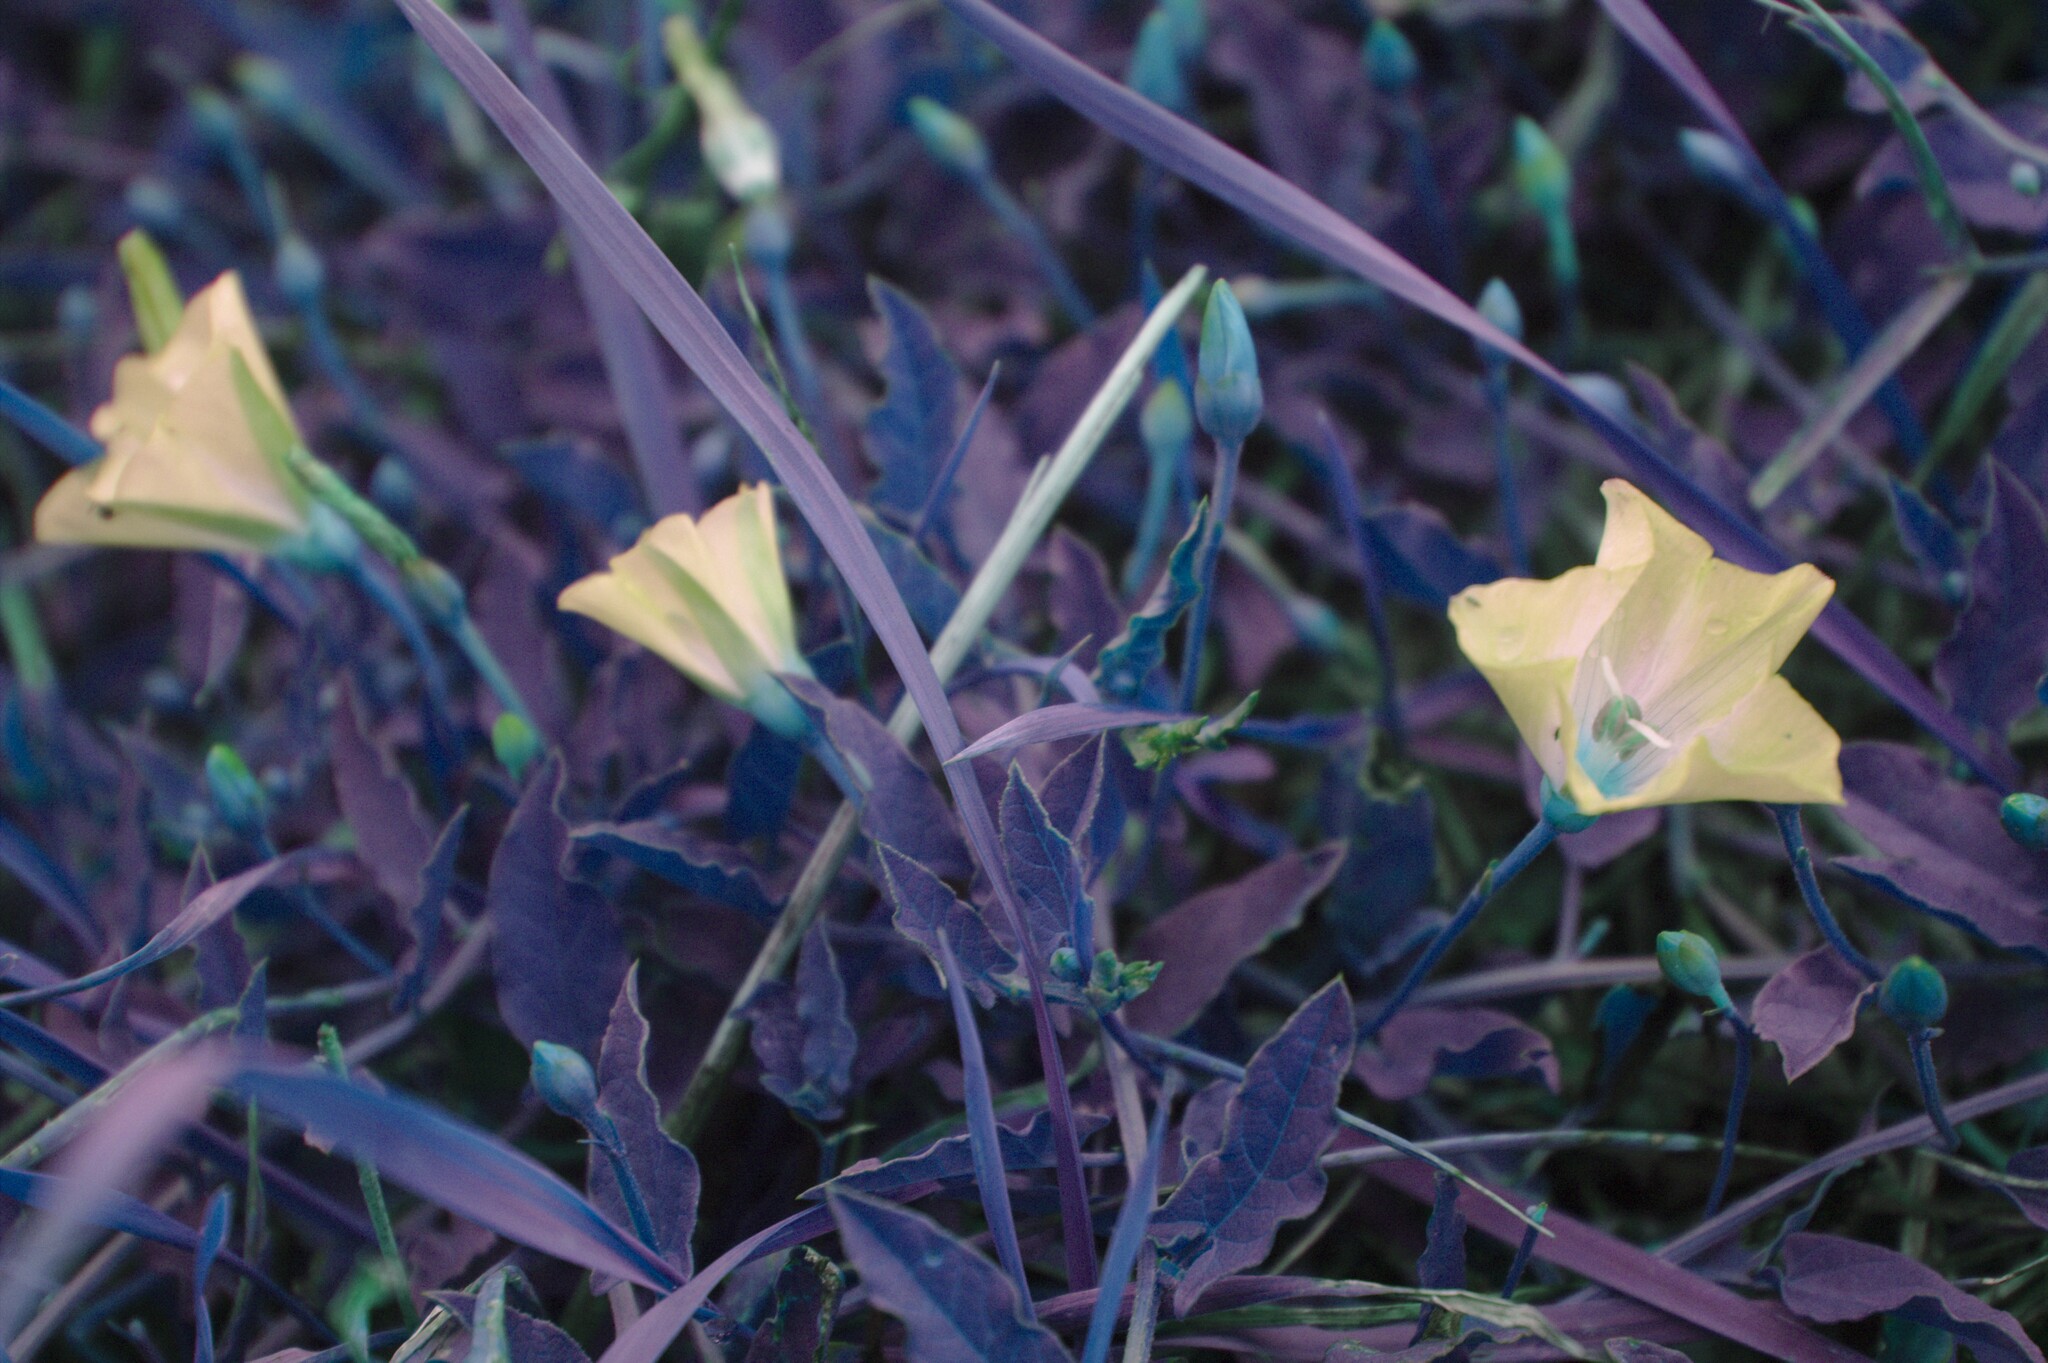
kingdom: Plantae
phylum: Tracheophyta
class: Magnoliopsida
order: Solanales
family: Convolvulaceae
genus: Convolvulus
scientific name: Convolvulus arvensis
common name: Field bindweed
